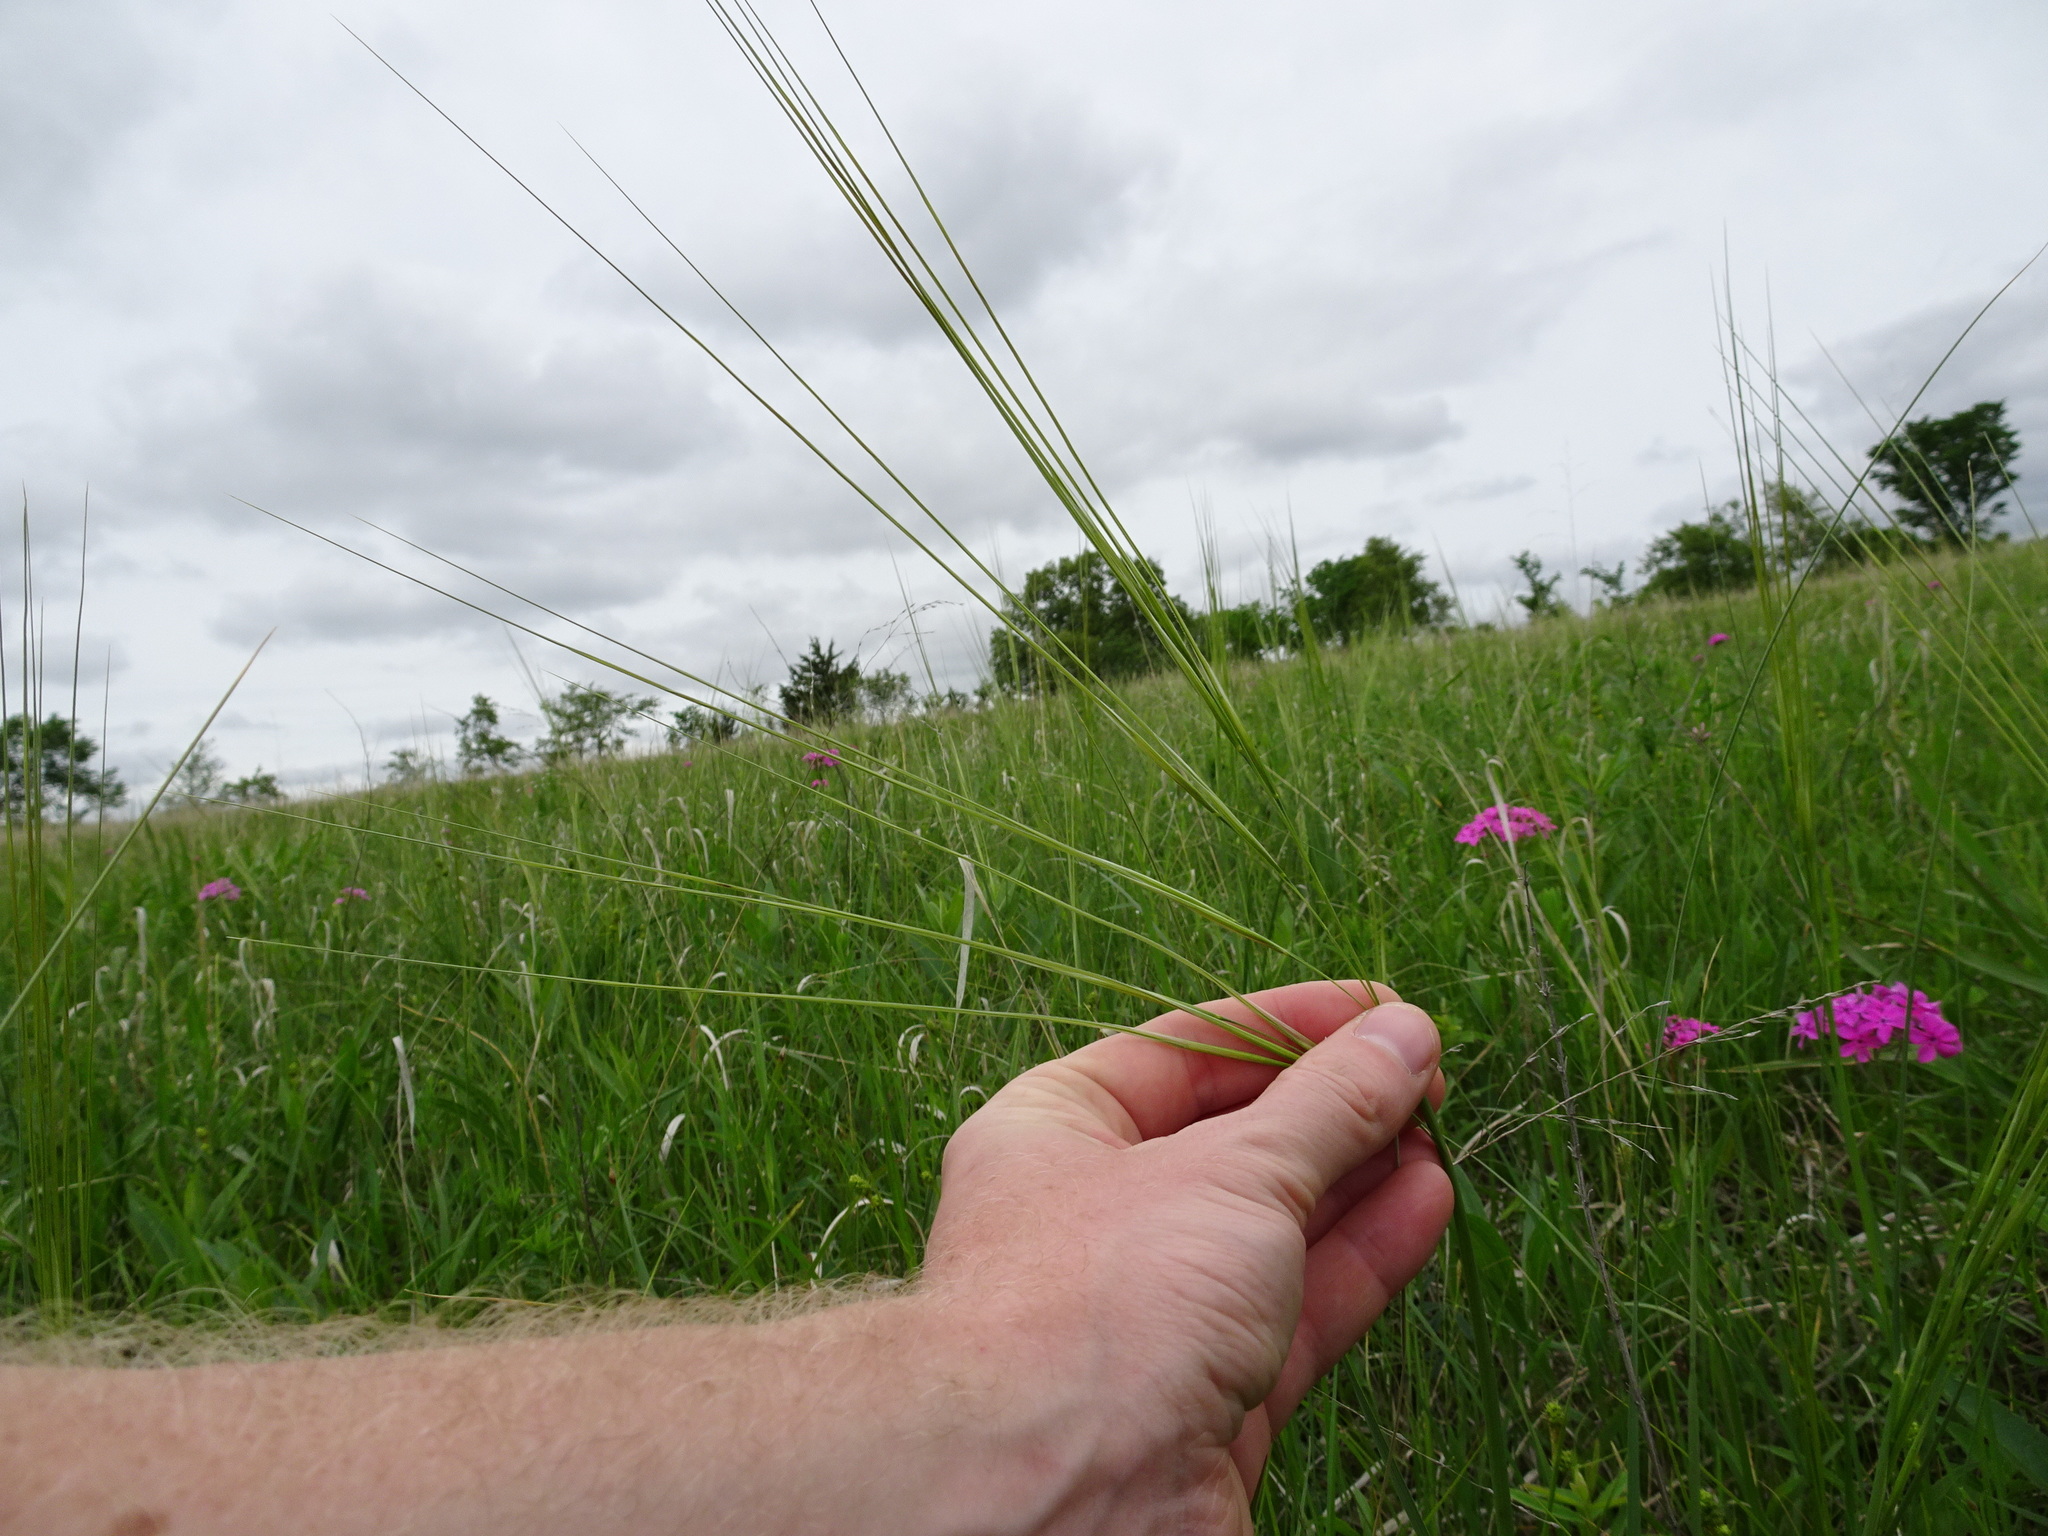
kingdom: Plantae
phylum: Tracheophyta
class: Liliopsida
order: Poales
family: Poaceae
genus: Hesperostipa
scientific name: Hesperostipa spartea
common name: Porcupine grass
